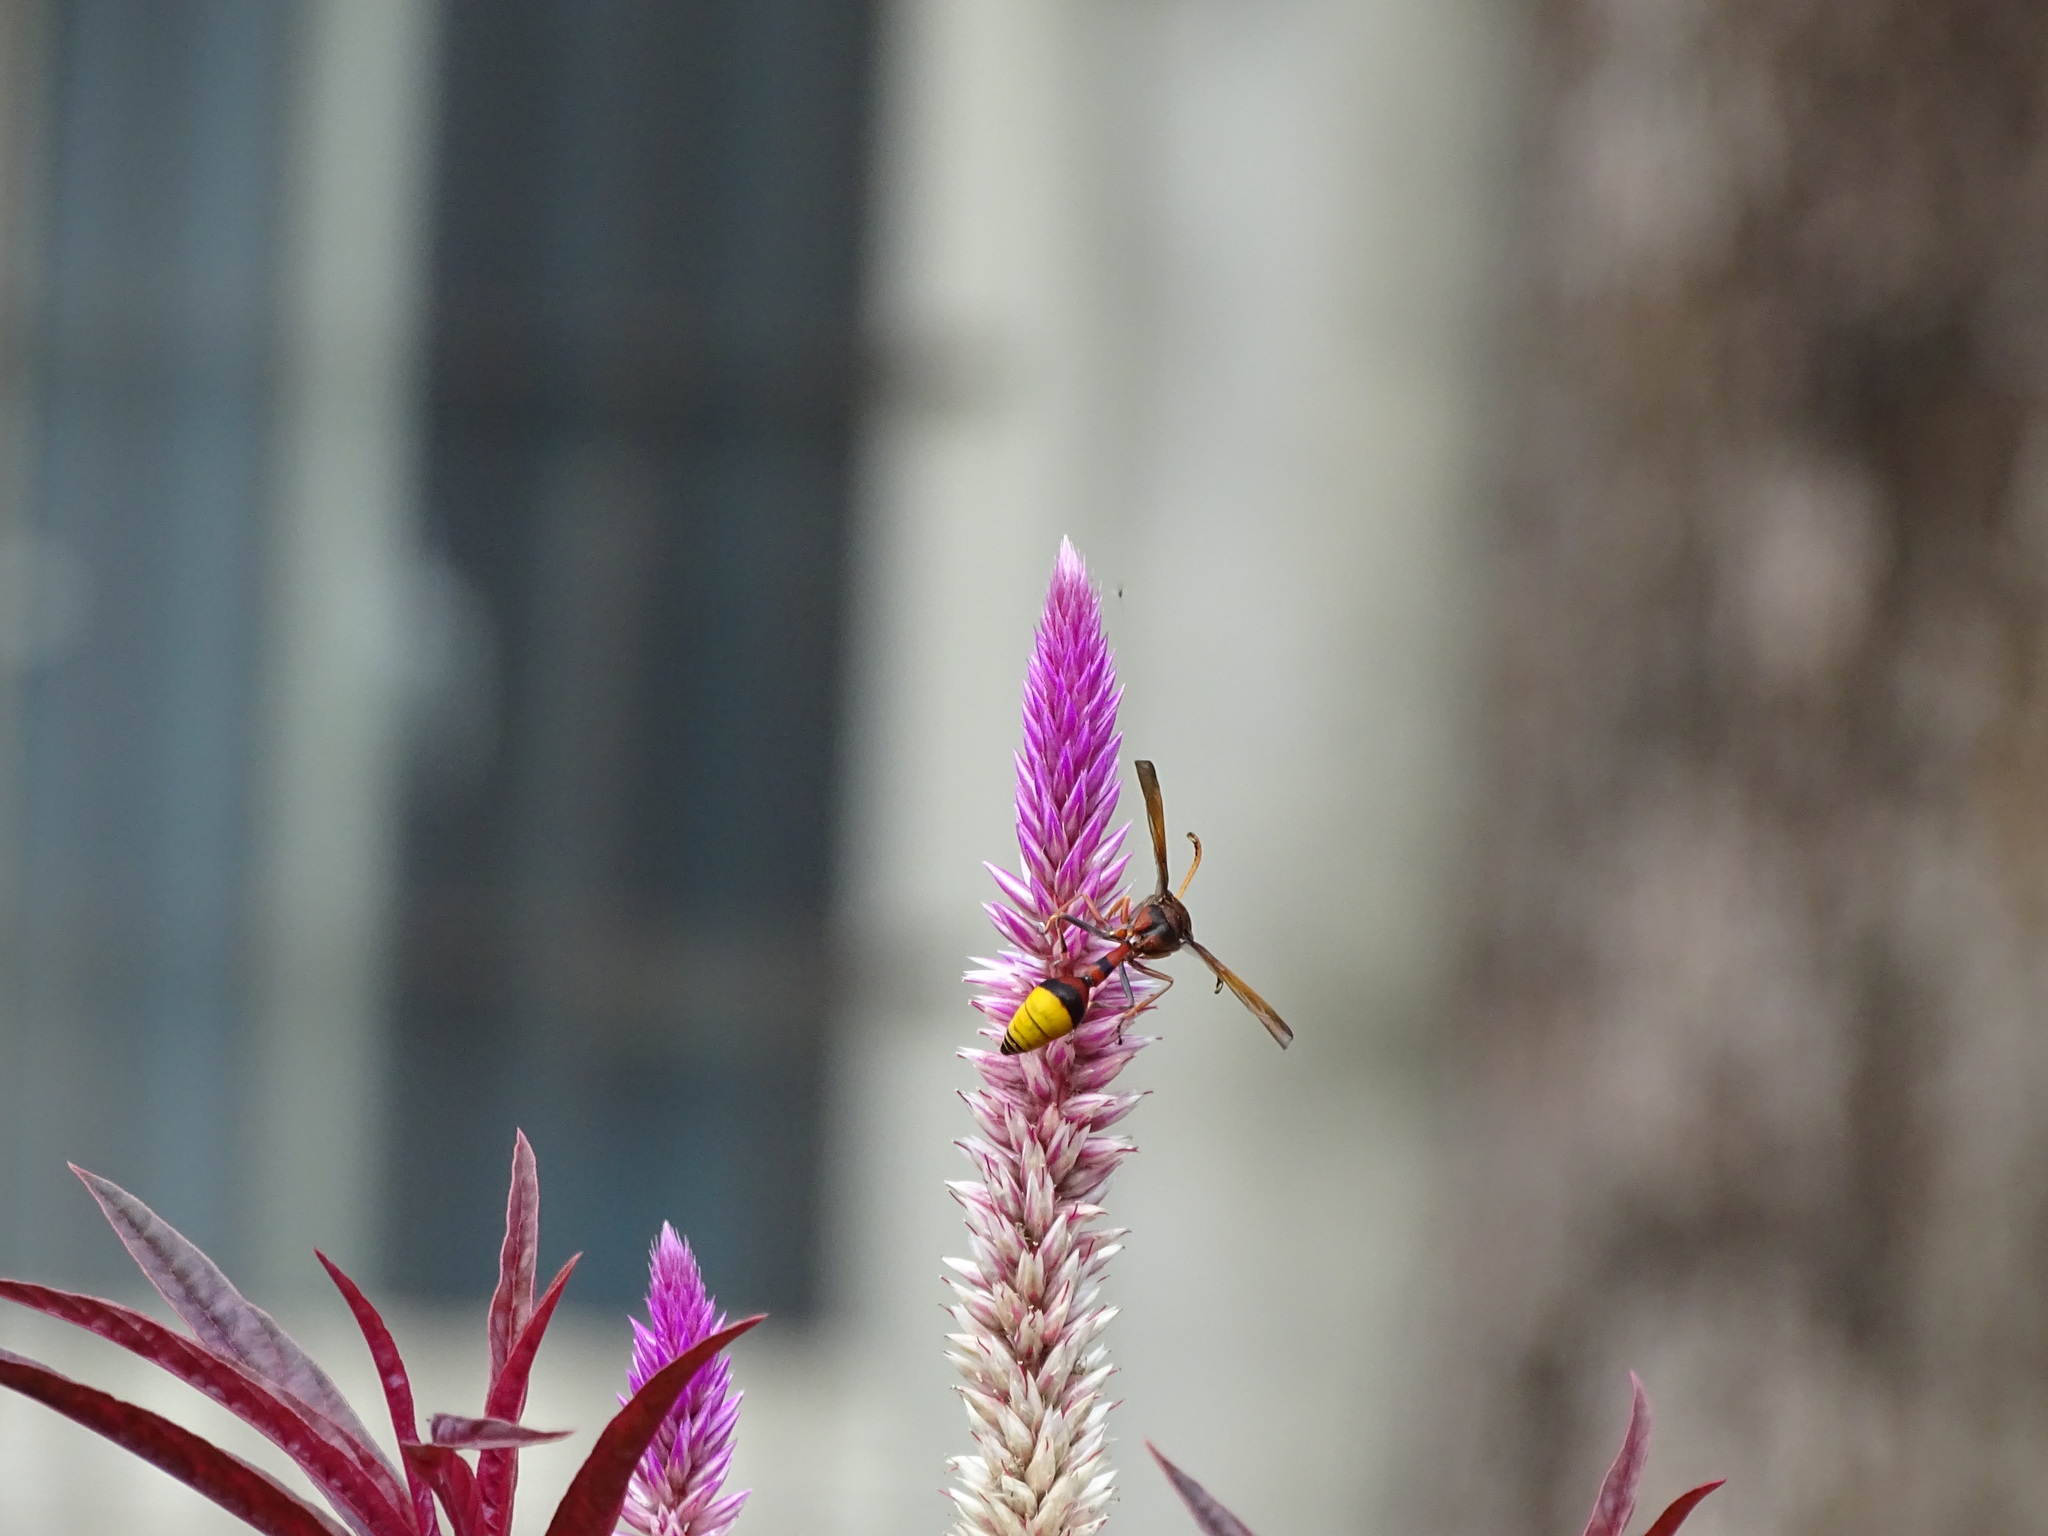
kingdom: Animalia
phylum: Arthropoda
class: Insecta
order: Hymenoptera
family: Eumenidae
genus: Delta
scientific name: Delta pyriforme
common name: Wasp
